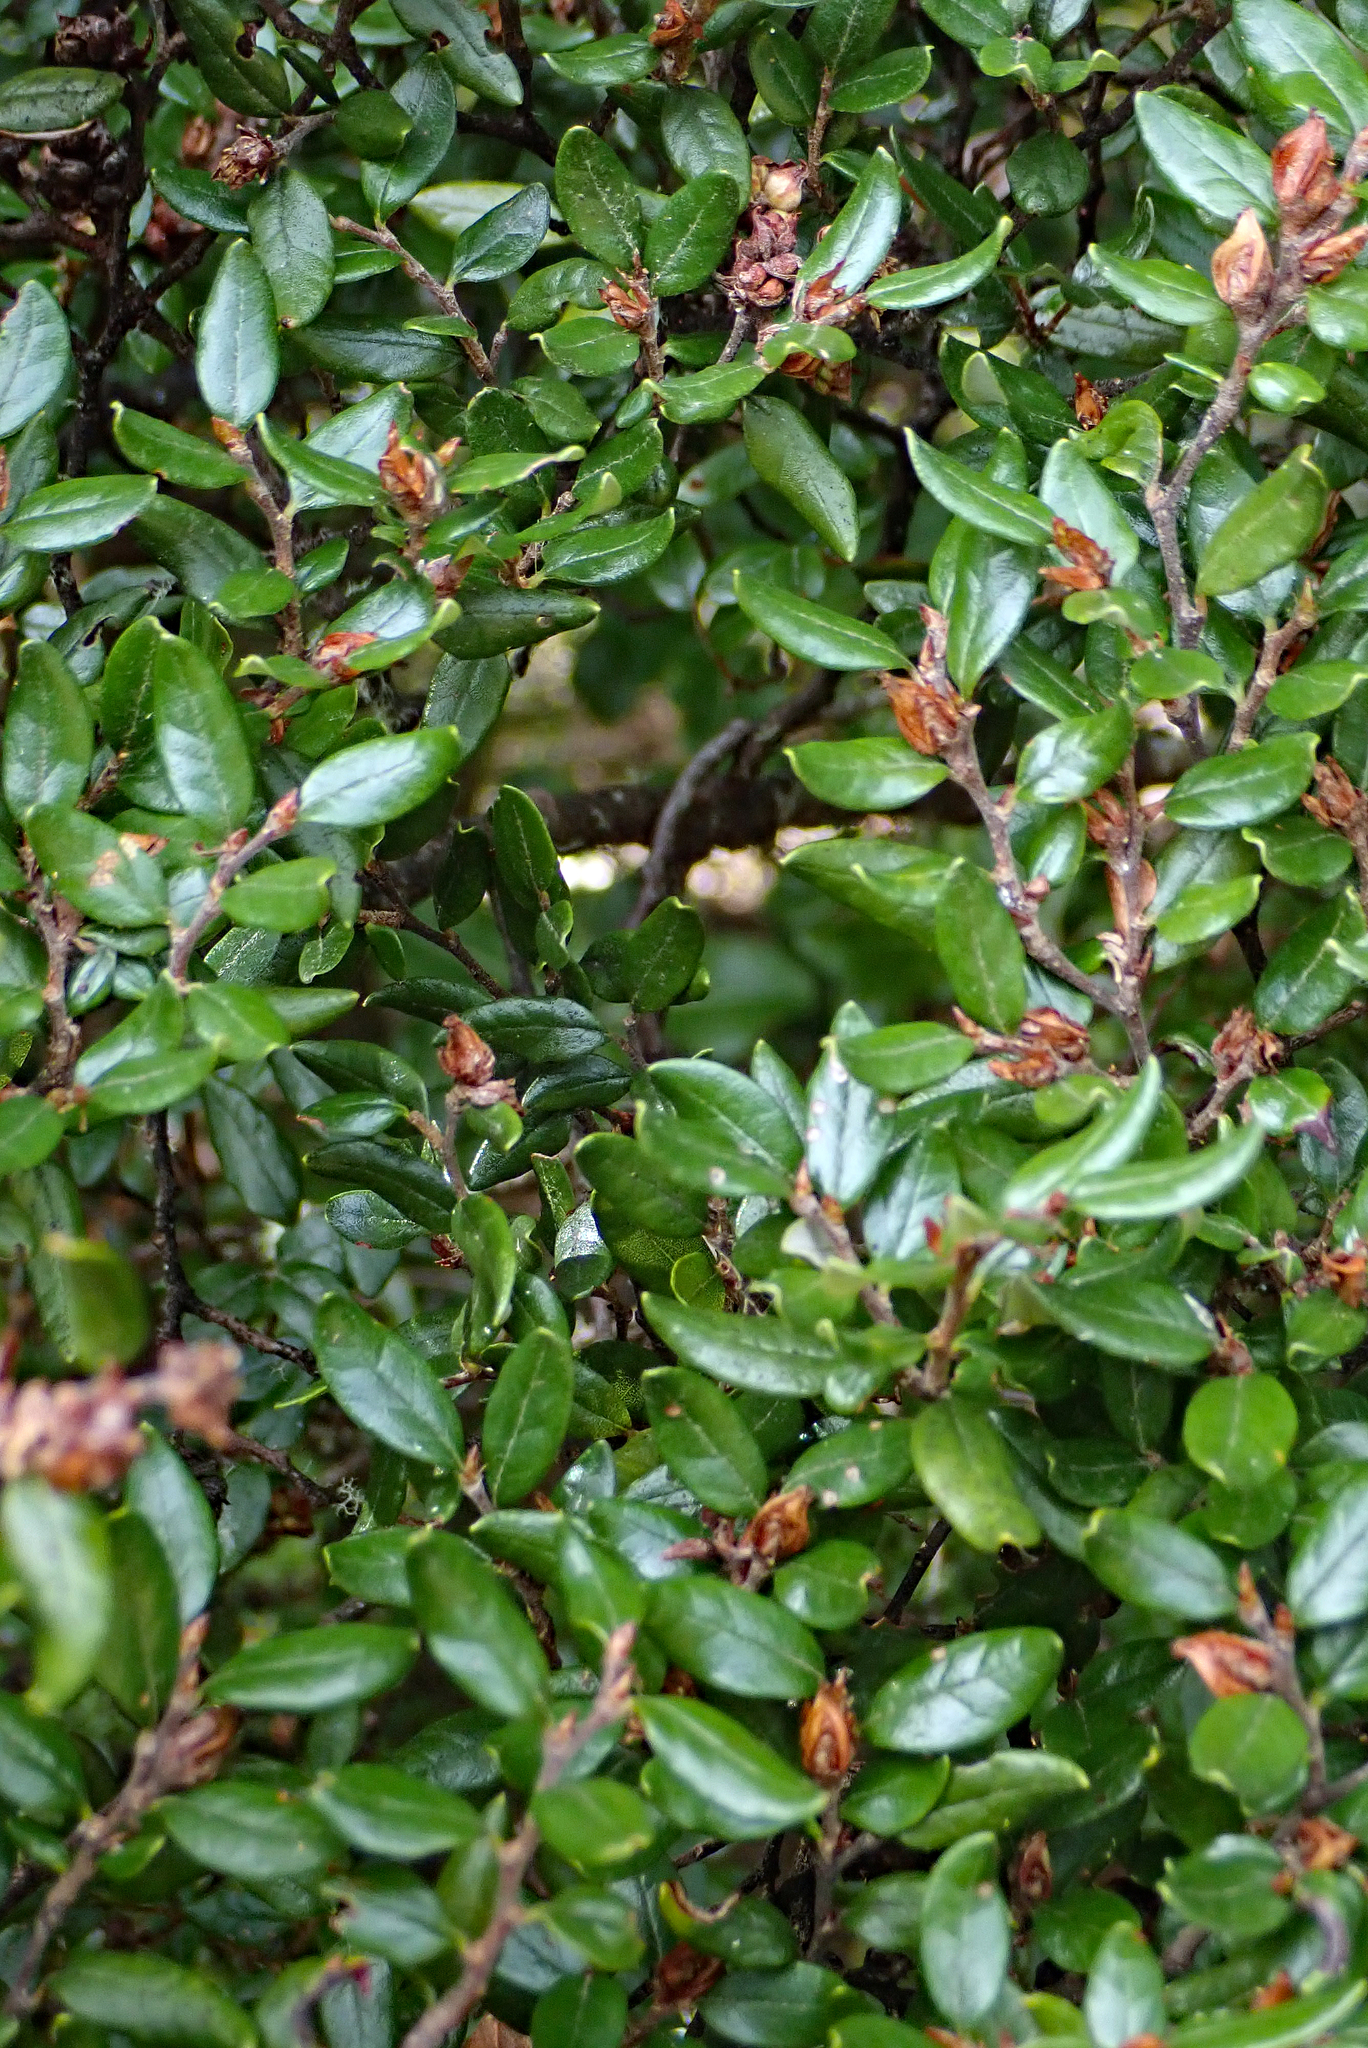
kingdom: Plantae
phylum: Tracheophyta
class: Magnoliopsida
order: Fagales
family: Nothofagaceae
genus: Nothofagus
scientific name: Nothofagus cliffortioides
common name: Mountain beech
